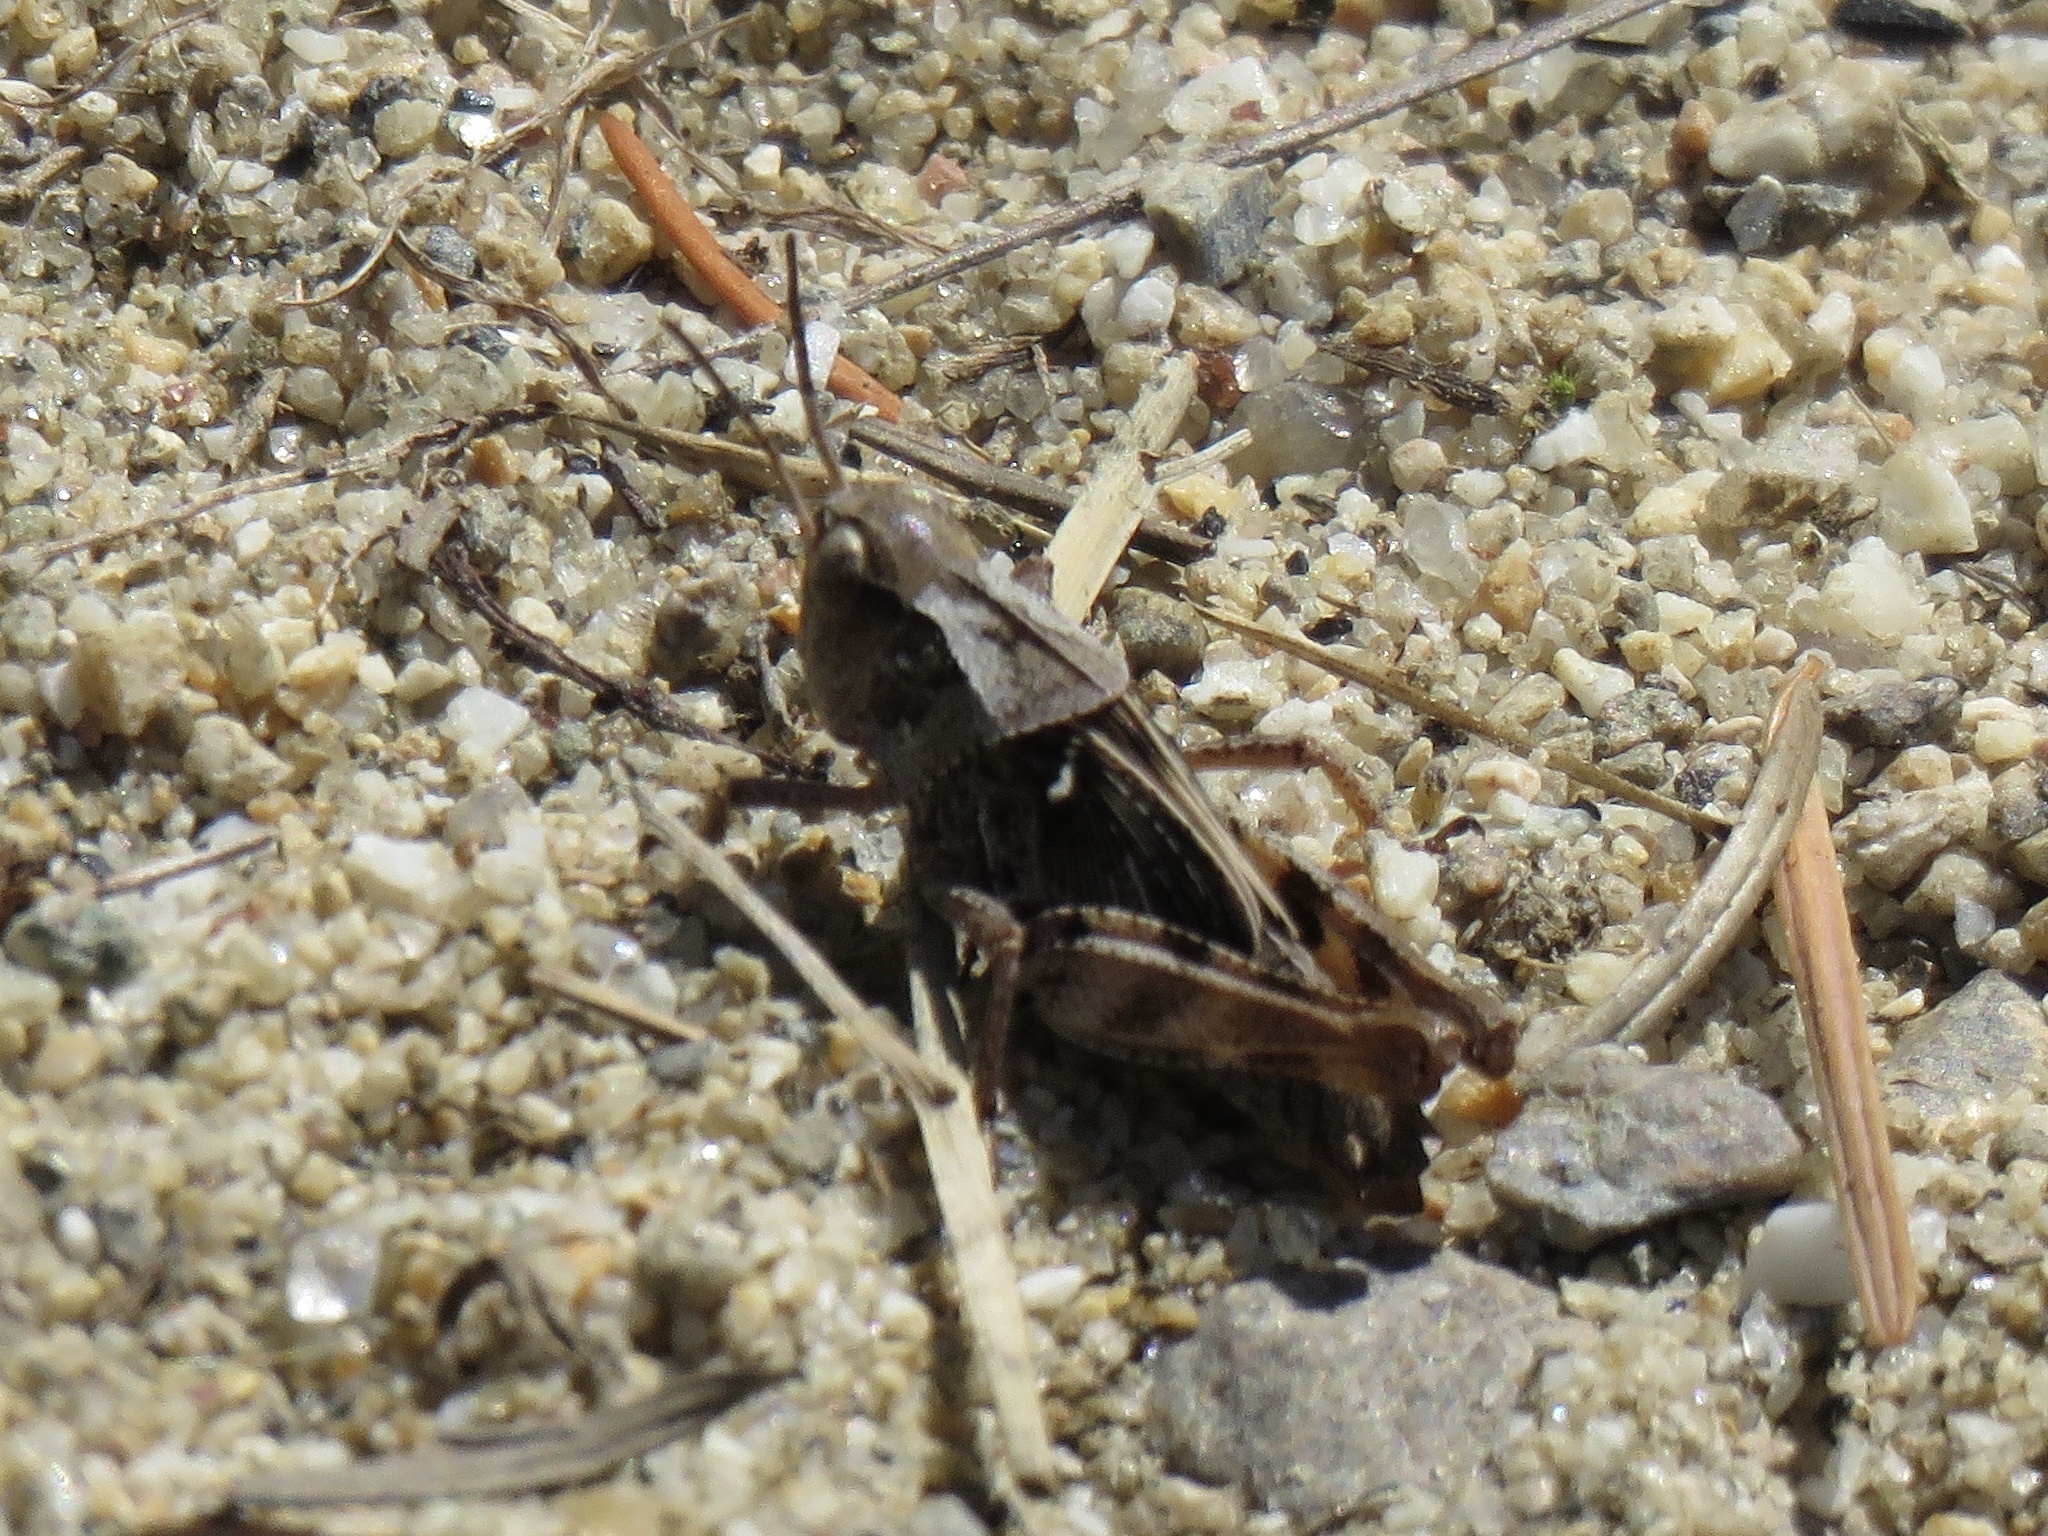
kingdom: Animalia
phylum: Arthropoda
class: Insecta
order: Orthoptera
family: Acrididae
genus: Camnula
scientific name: Camnula pellucida
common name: Clear-winged grasshopper
